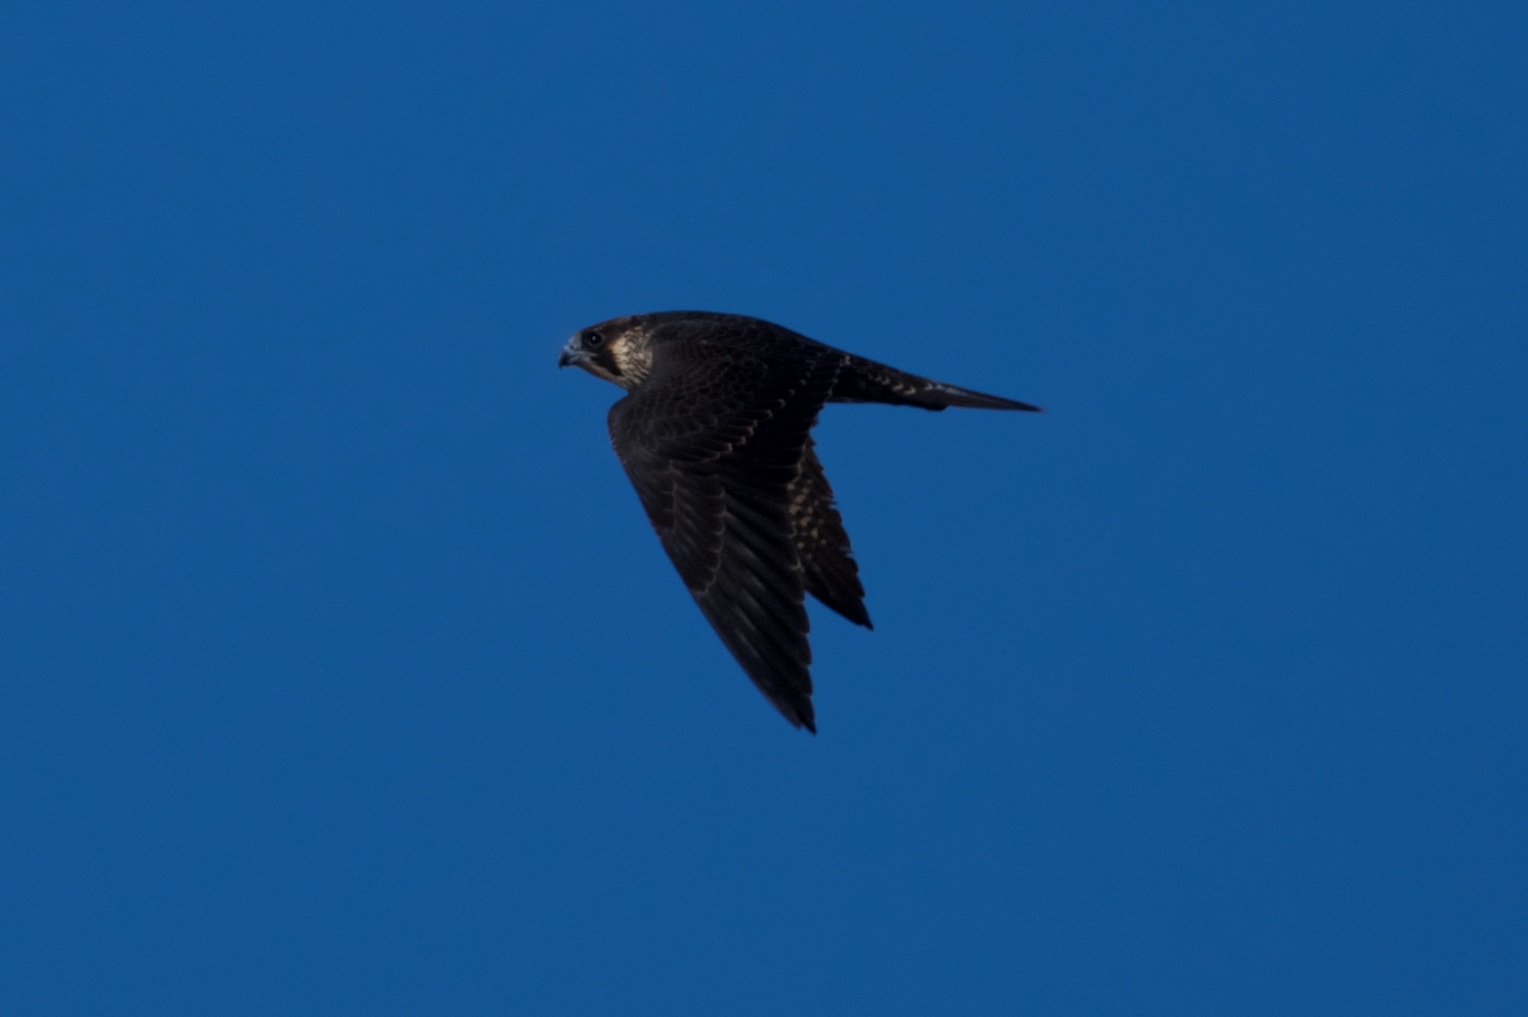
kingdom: Animalia
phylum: Chordata
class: Aves
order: Falconiformes
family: Falconidae
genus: Falco
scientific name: Falco peregrinus
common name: Peregrine falcon
